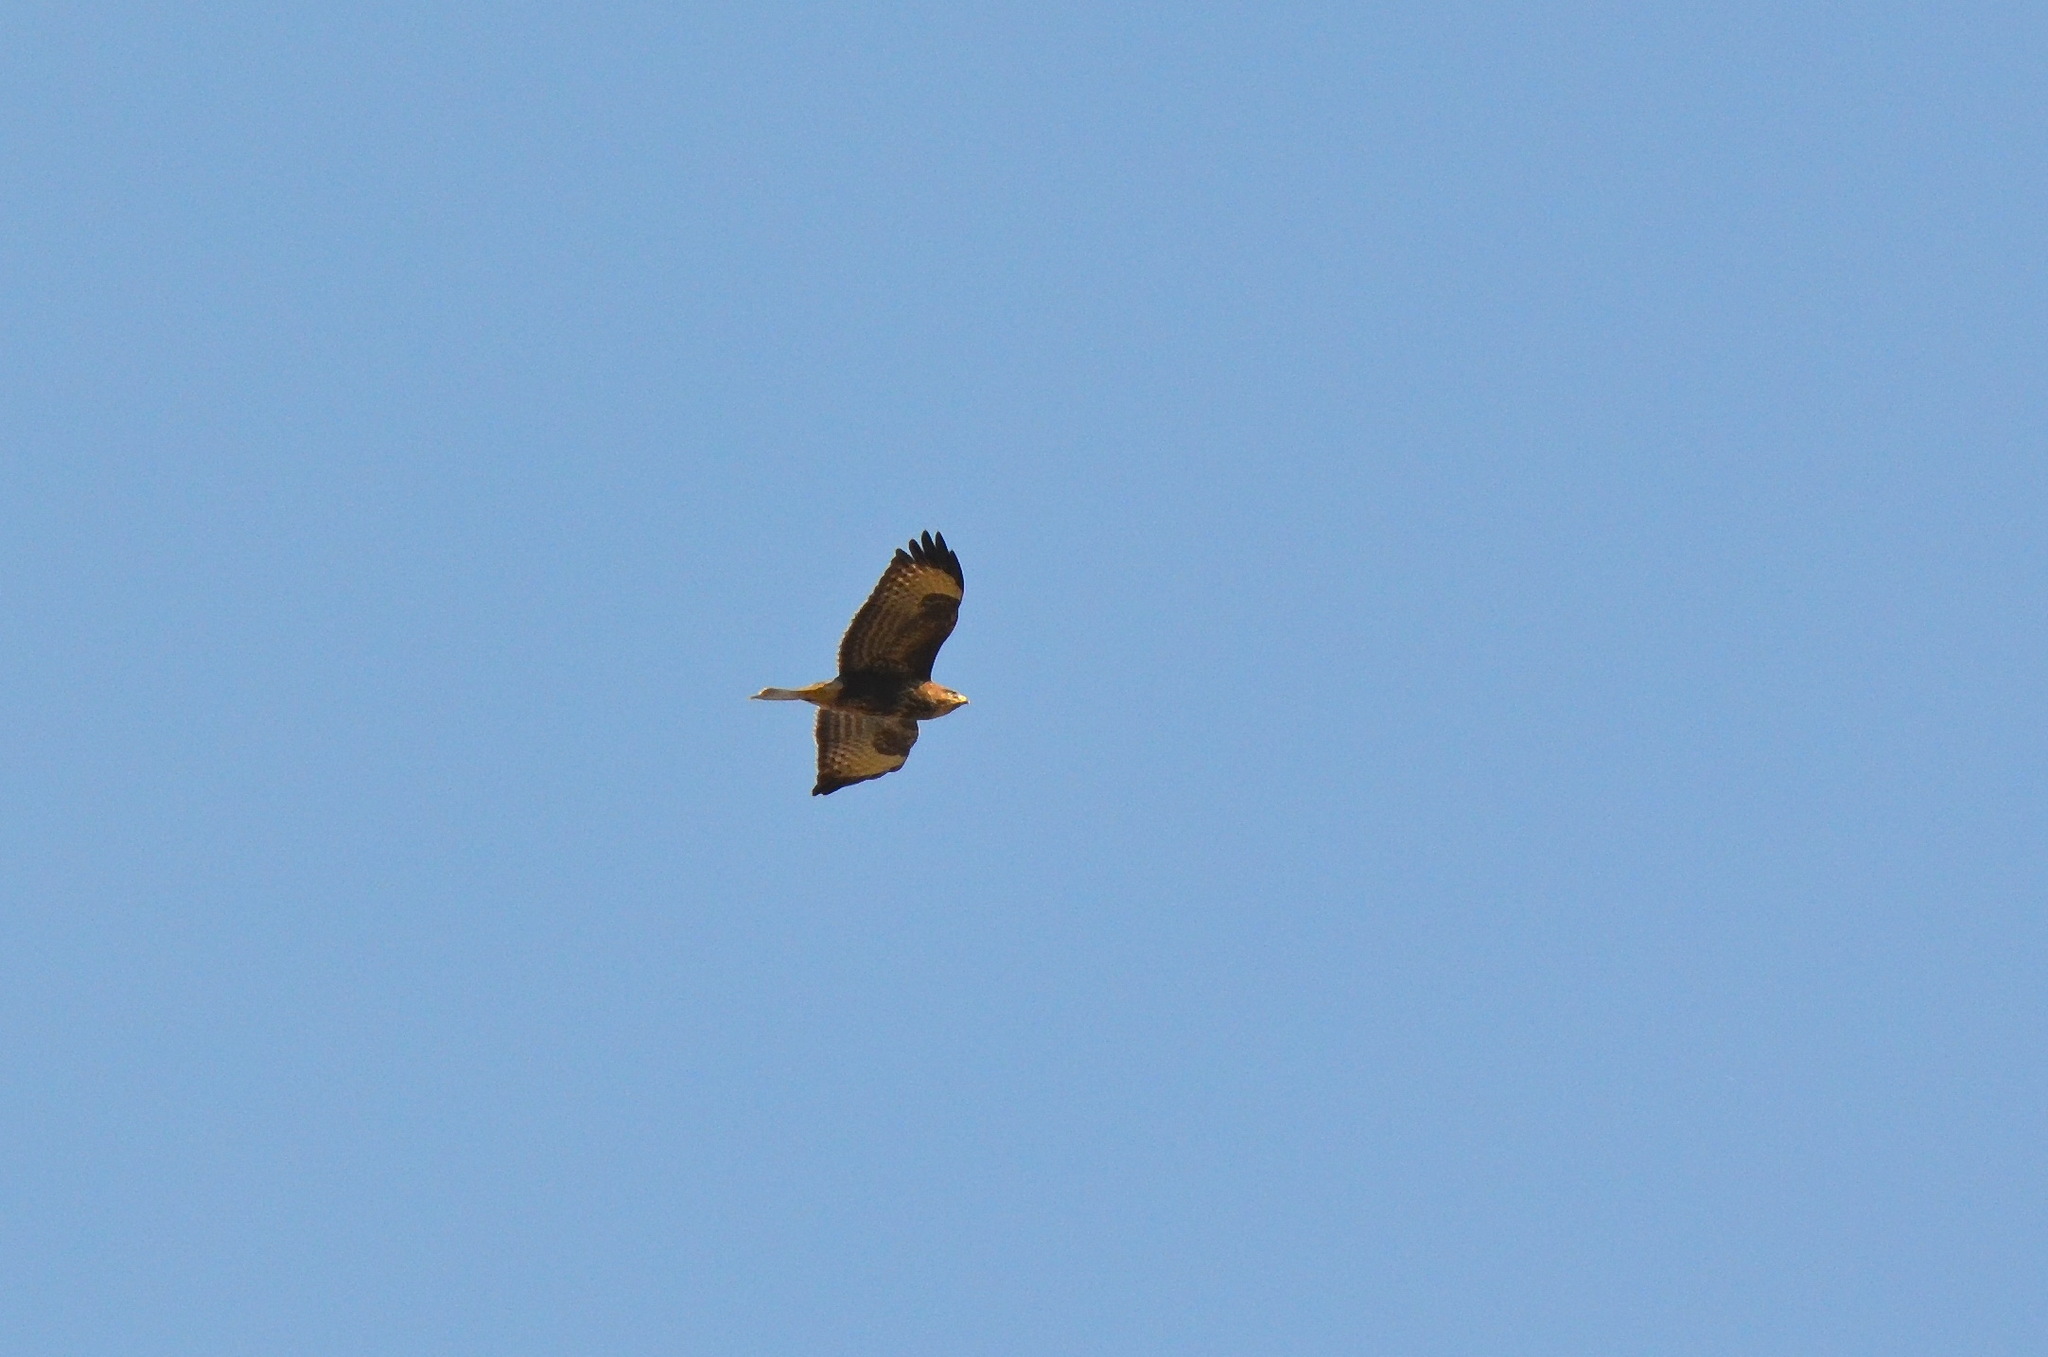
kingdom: Animalia
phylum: Chordata
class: Aves
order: Accipitriformes
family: Accipitridae
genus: Buteo
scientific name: Buteo buteo
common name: Common buzzard
